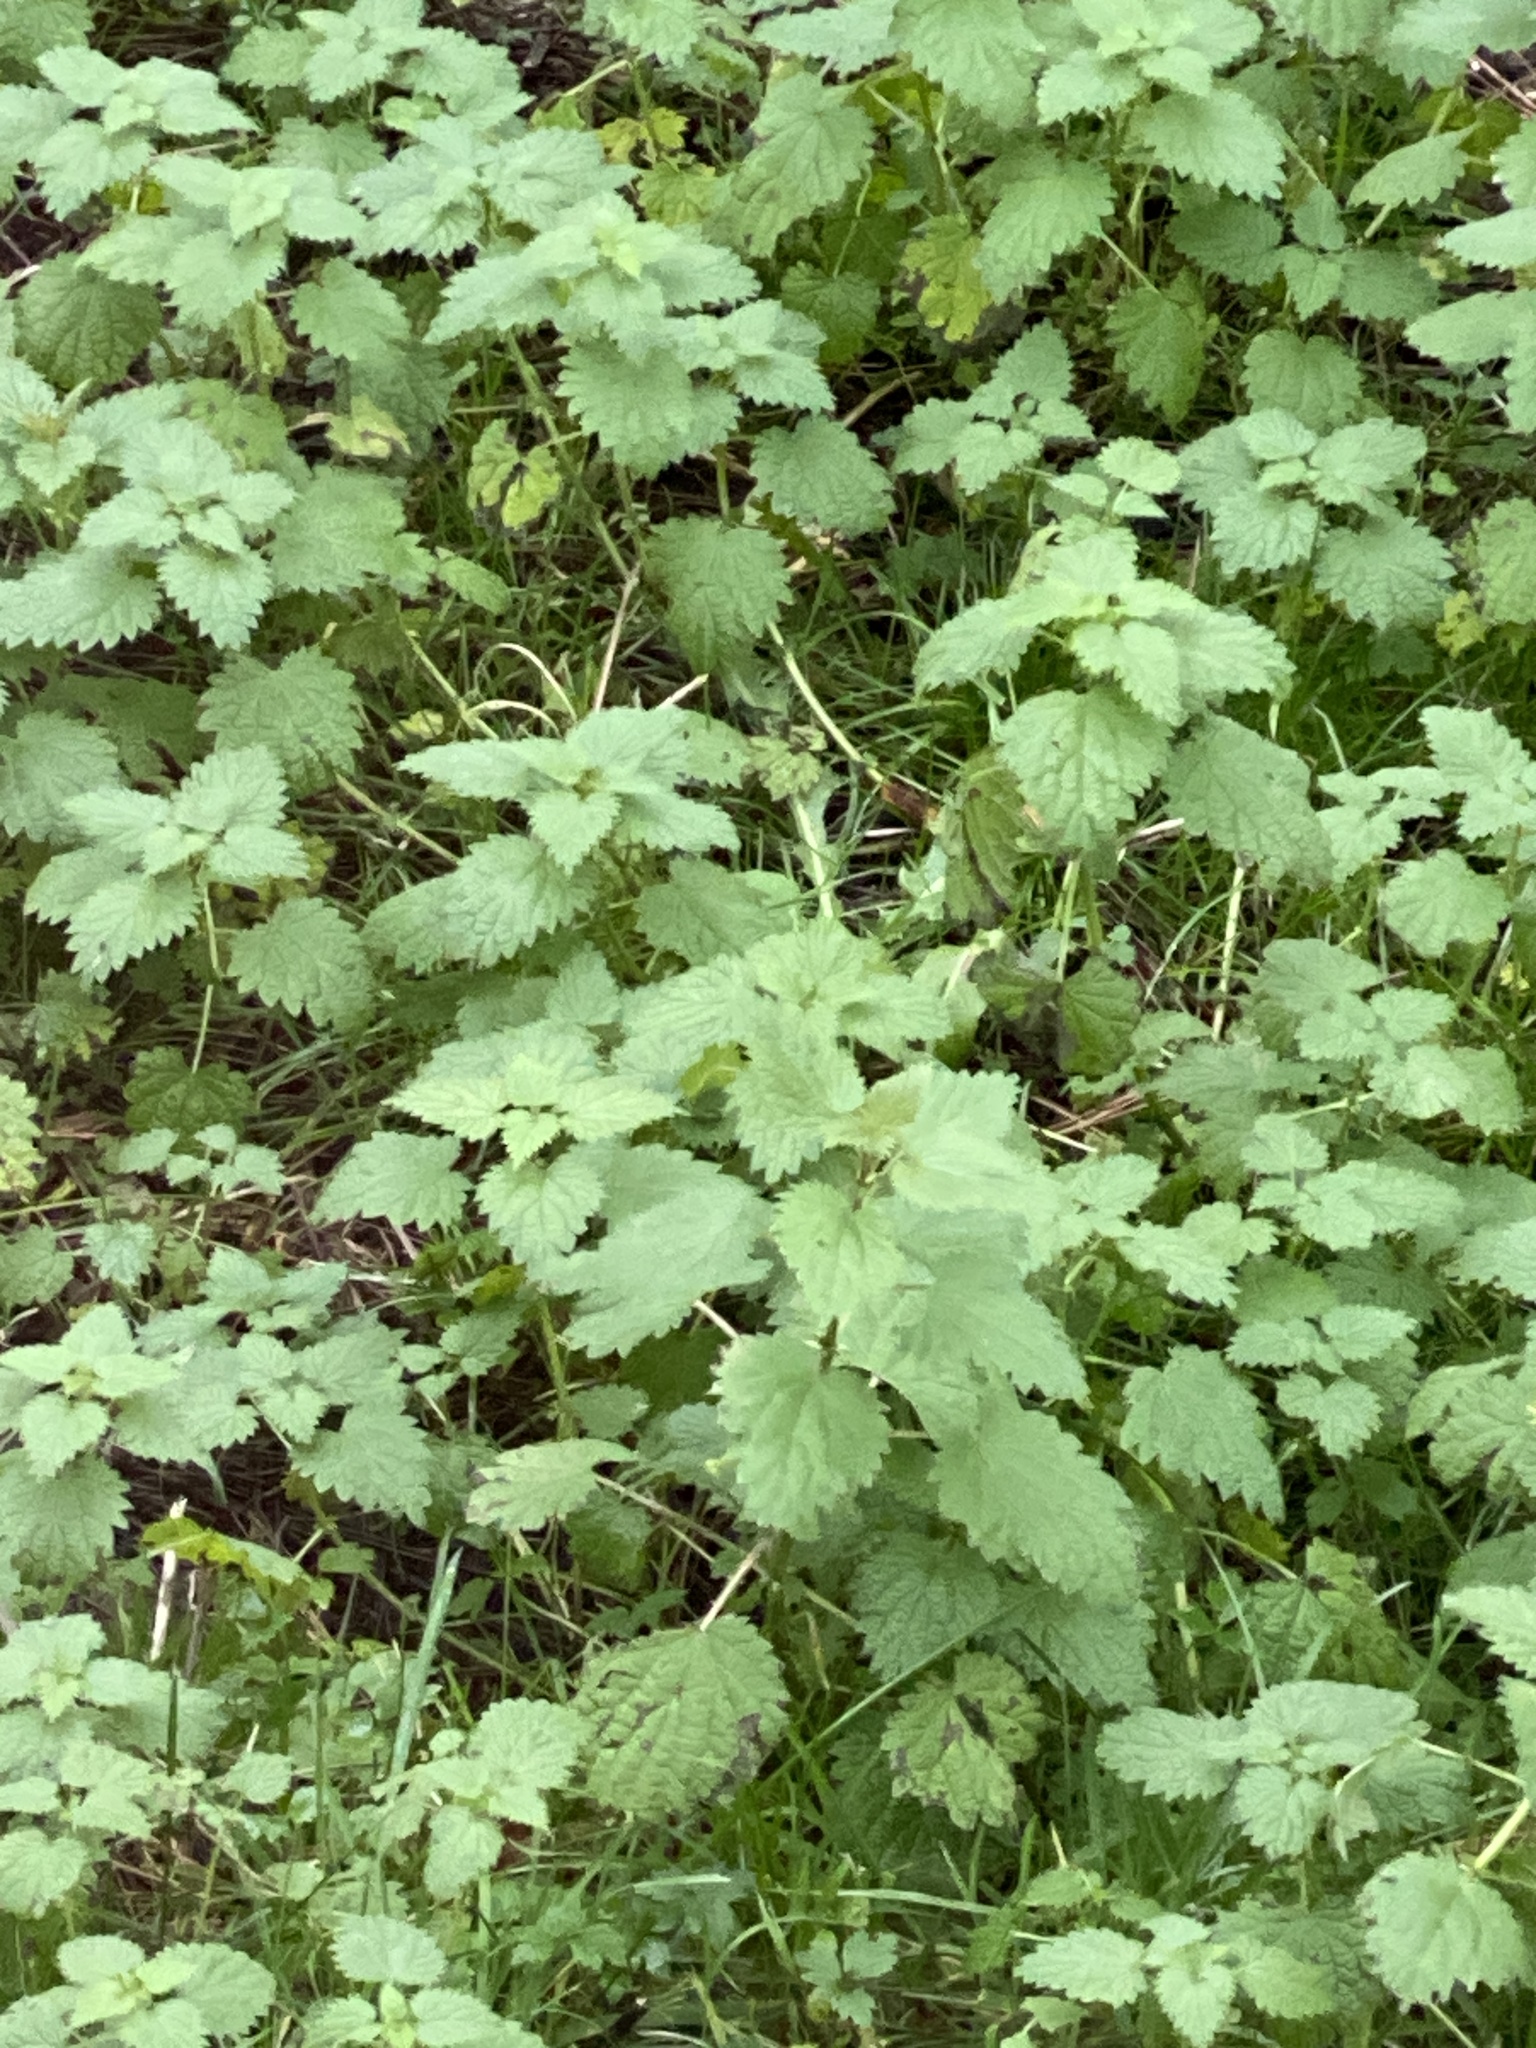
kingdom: Plantae
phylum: Tracheophyta
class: Magnoliopsida
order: Rosales
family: Urticaceae
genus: Urtica
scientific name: Urtica dioica
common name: Common nettle
